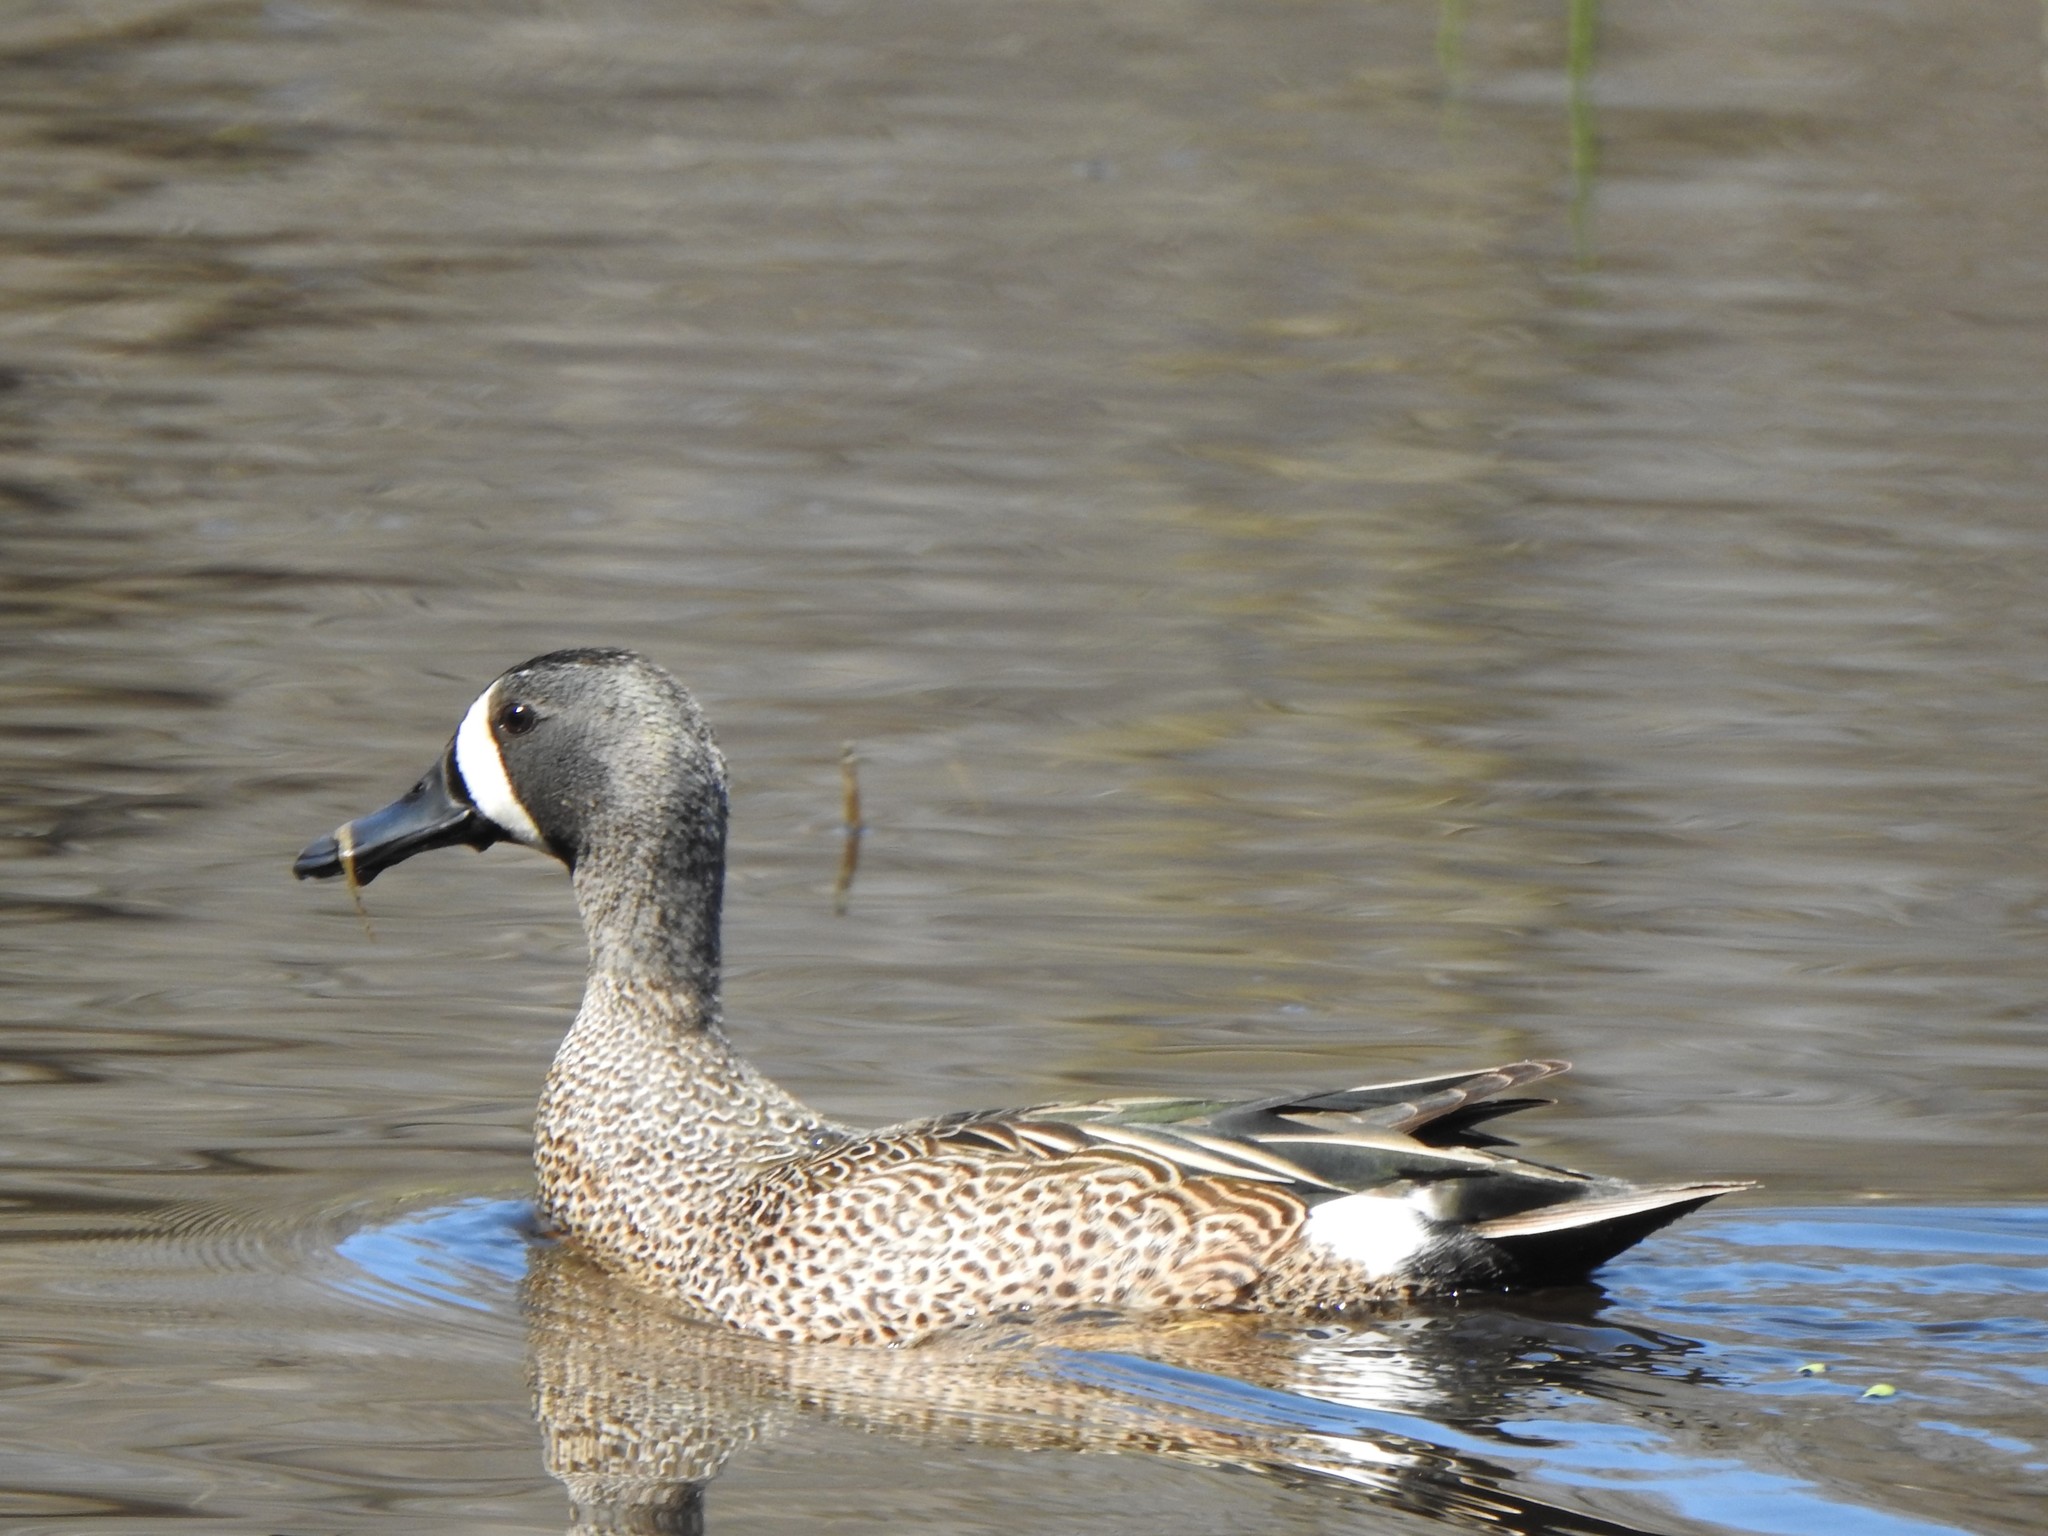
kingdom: Animalia
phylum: Chordata
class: Aves
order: Anseriformes
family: Anatidae
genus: Spatula
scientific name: Spatula discors
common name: Blue-winged teal
